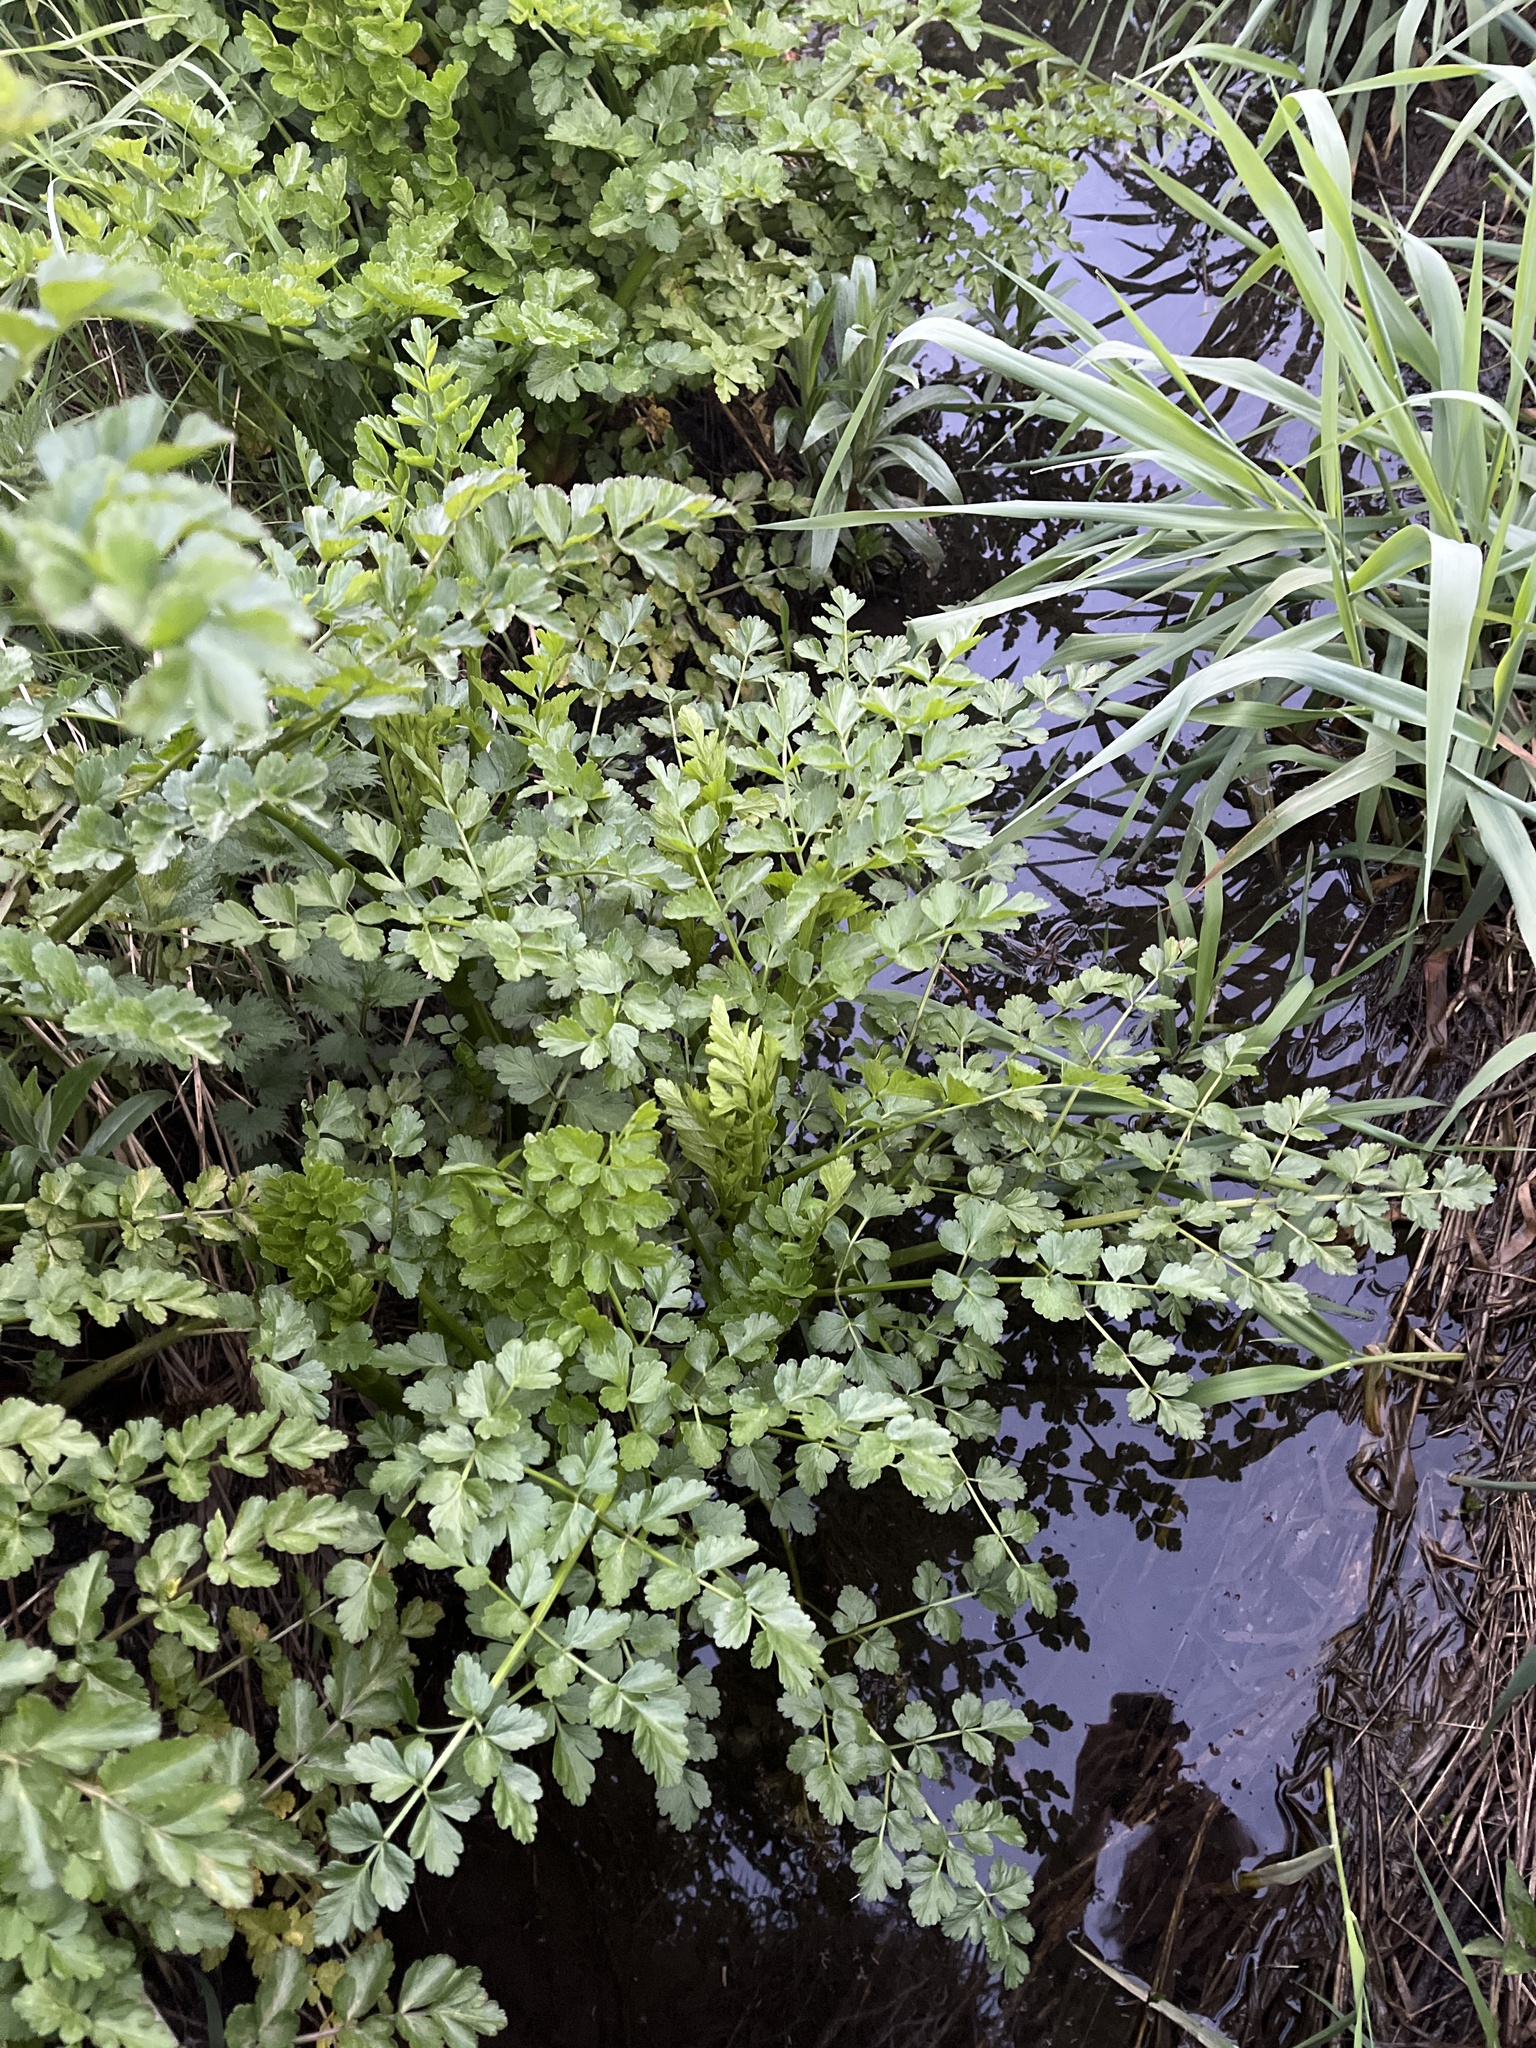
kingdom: Plantae
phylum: Tracheophyta
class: Magnoliopsida
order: Apiales
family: Apiaceae
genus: Oenanthe
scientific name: Oenanthe crocata
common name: Hemlock water-dropwort
